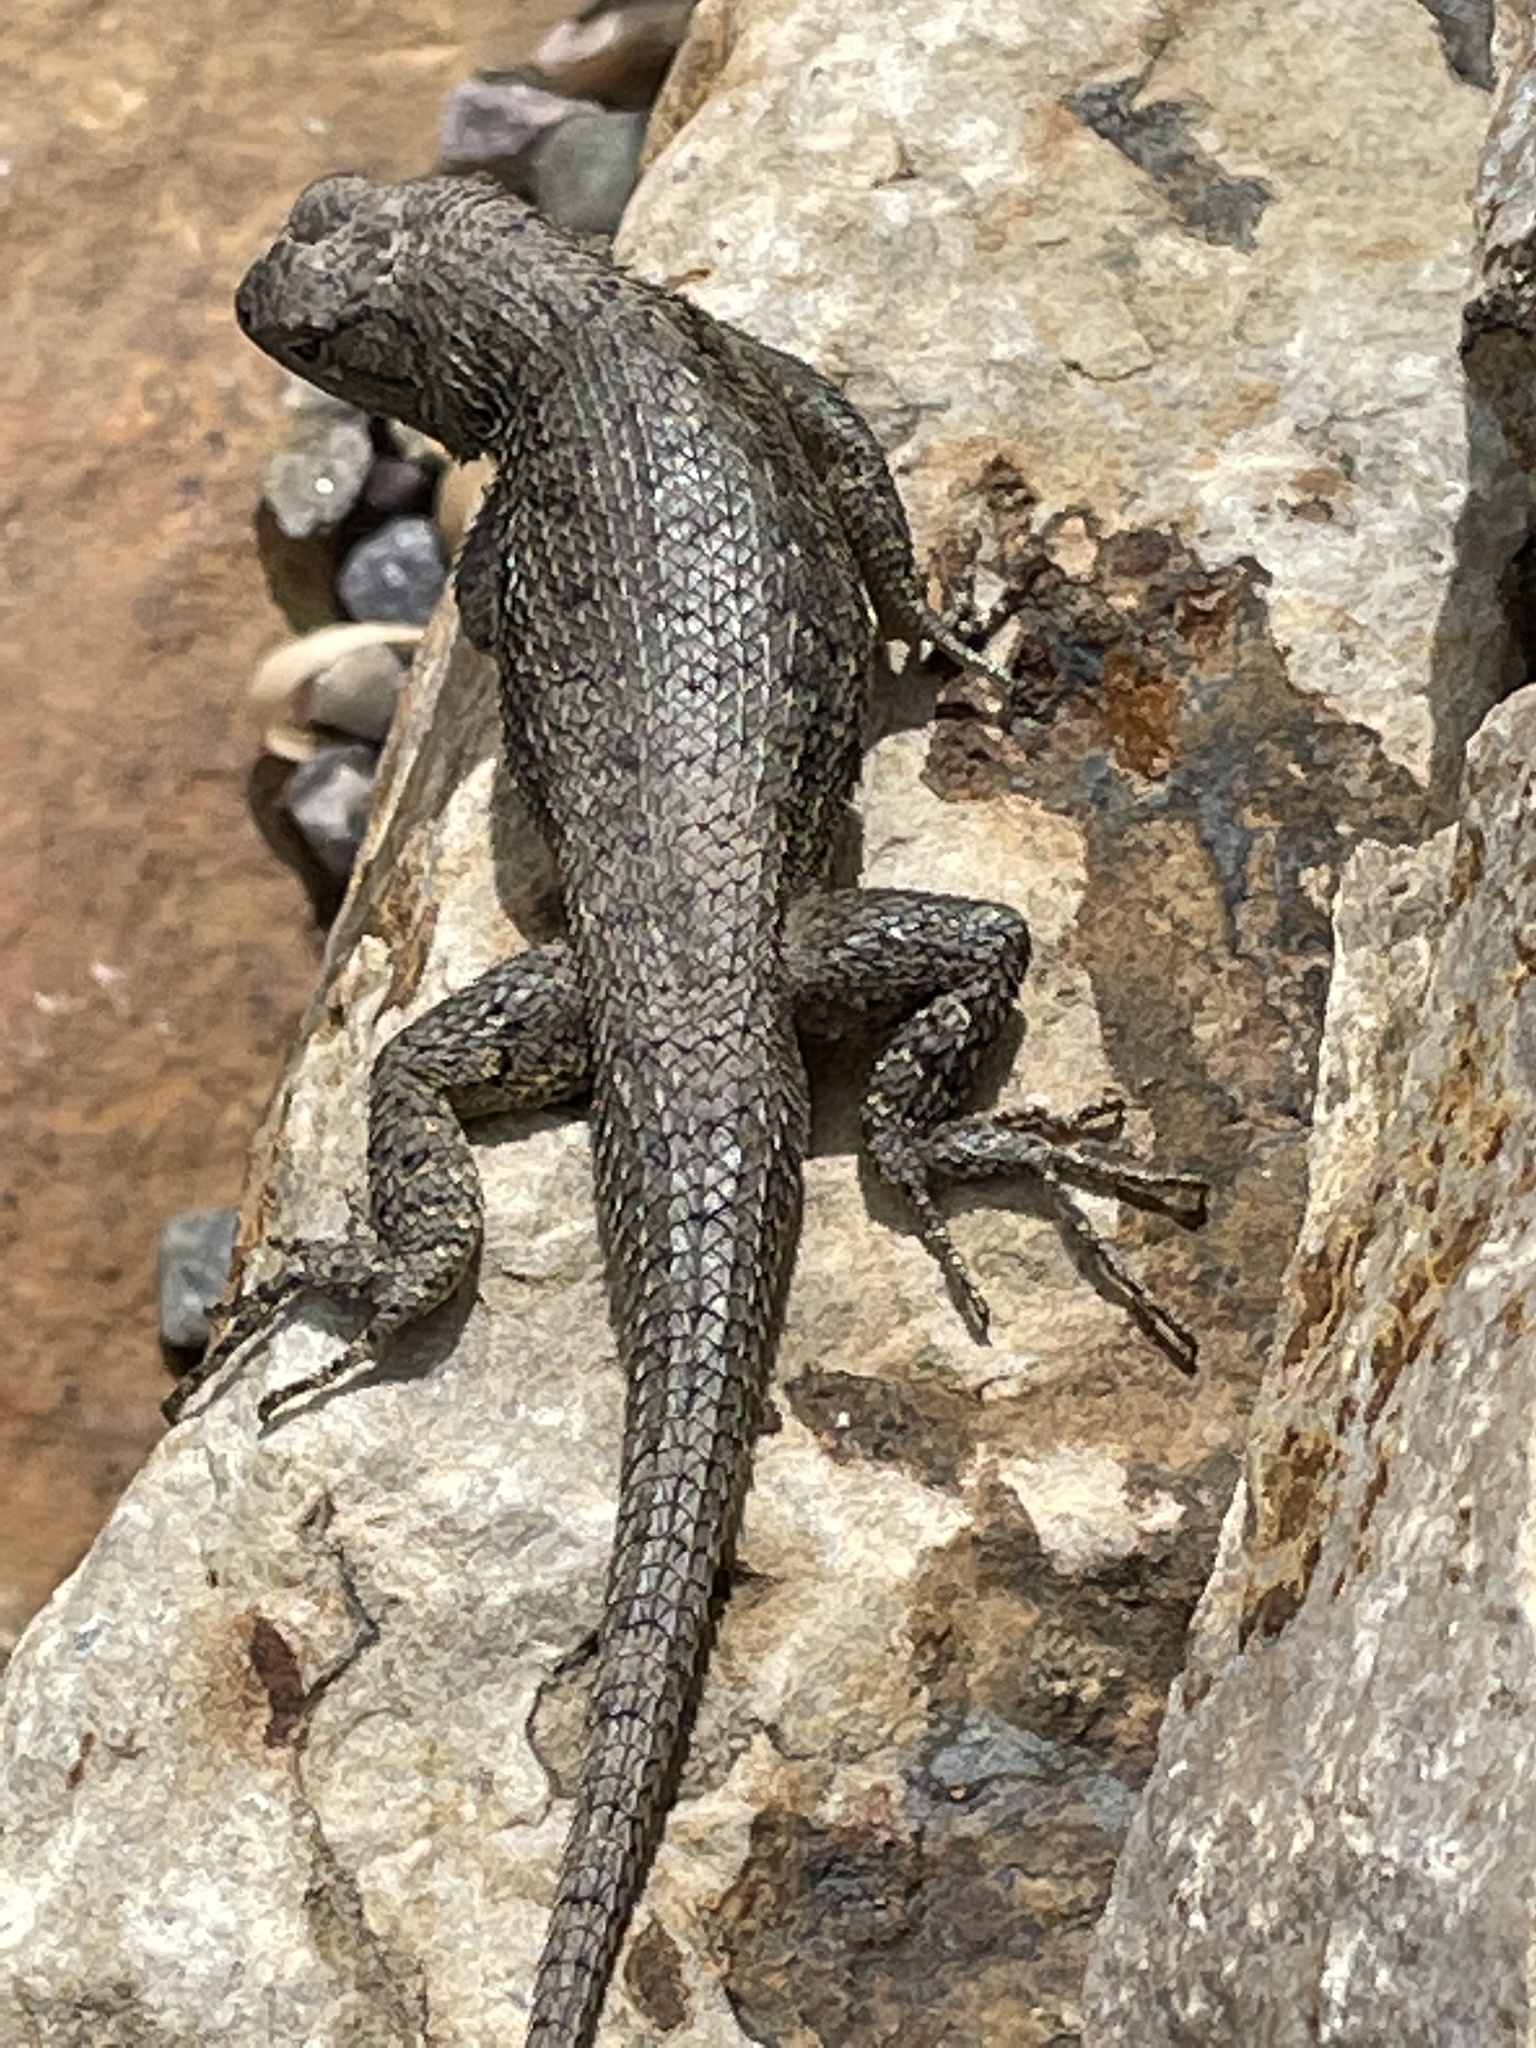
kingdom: Animalia
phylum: Chordata
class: Squamata
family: Phrynosomatidae
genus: Sceloporus
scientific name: Sceloporus tristichus
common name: Plateau fence lizard
